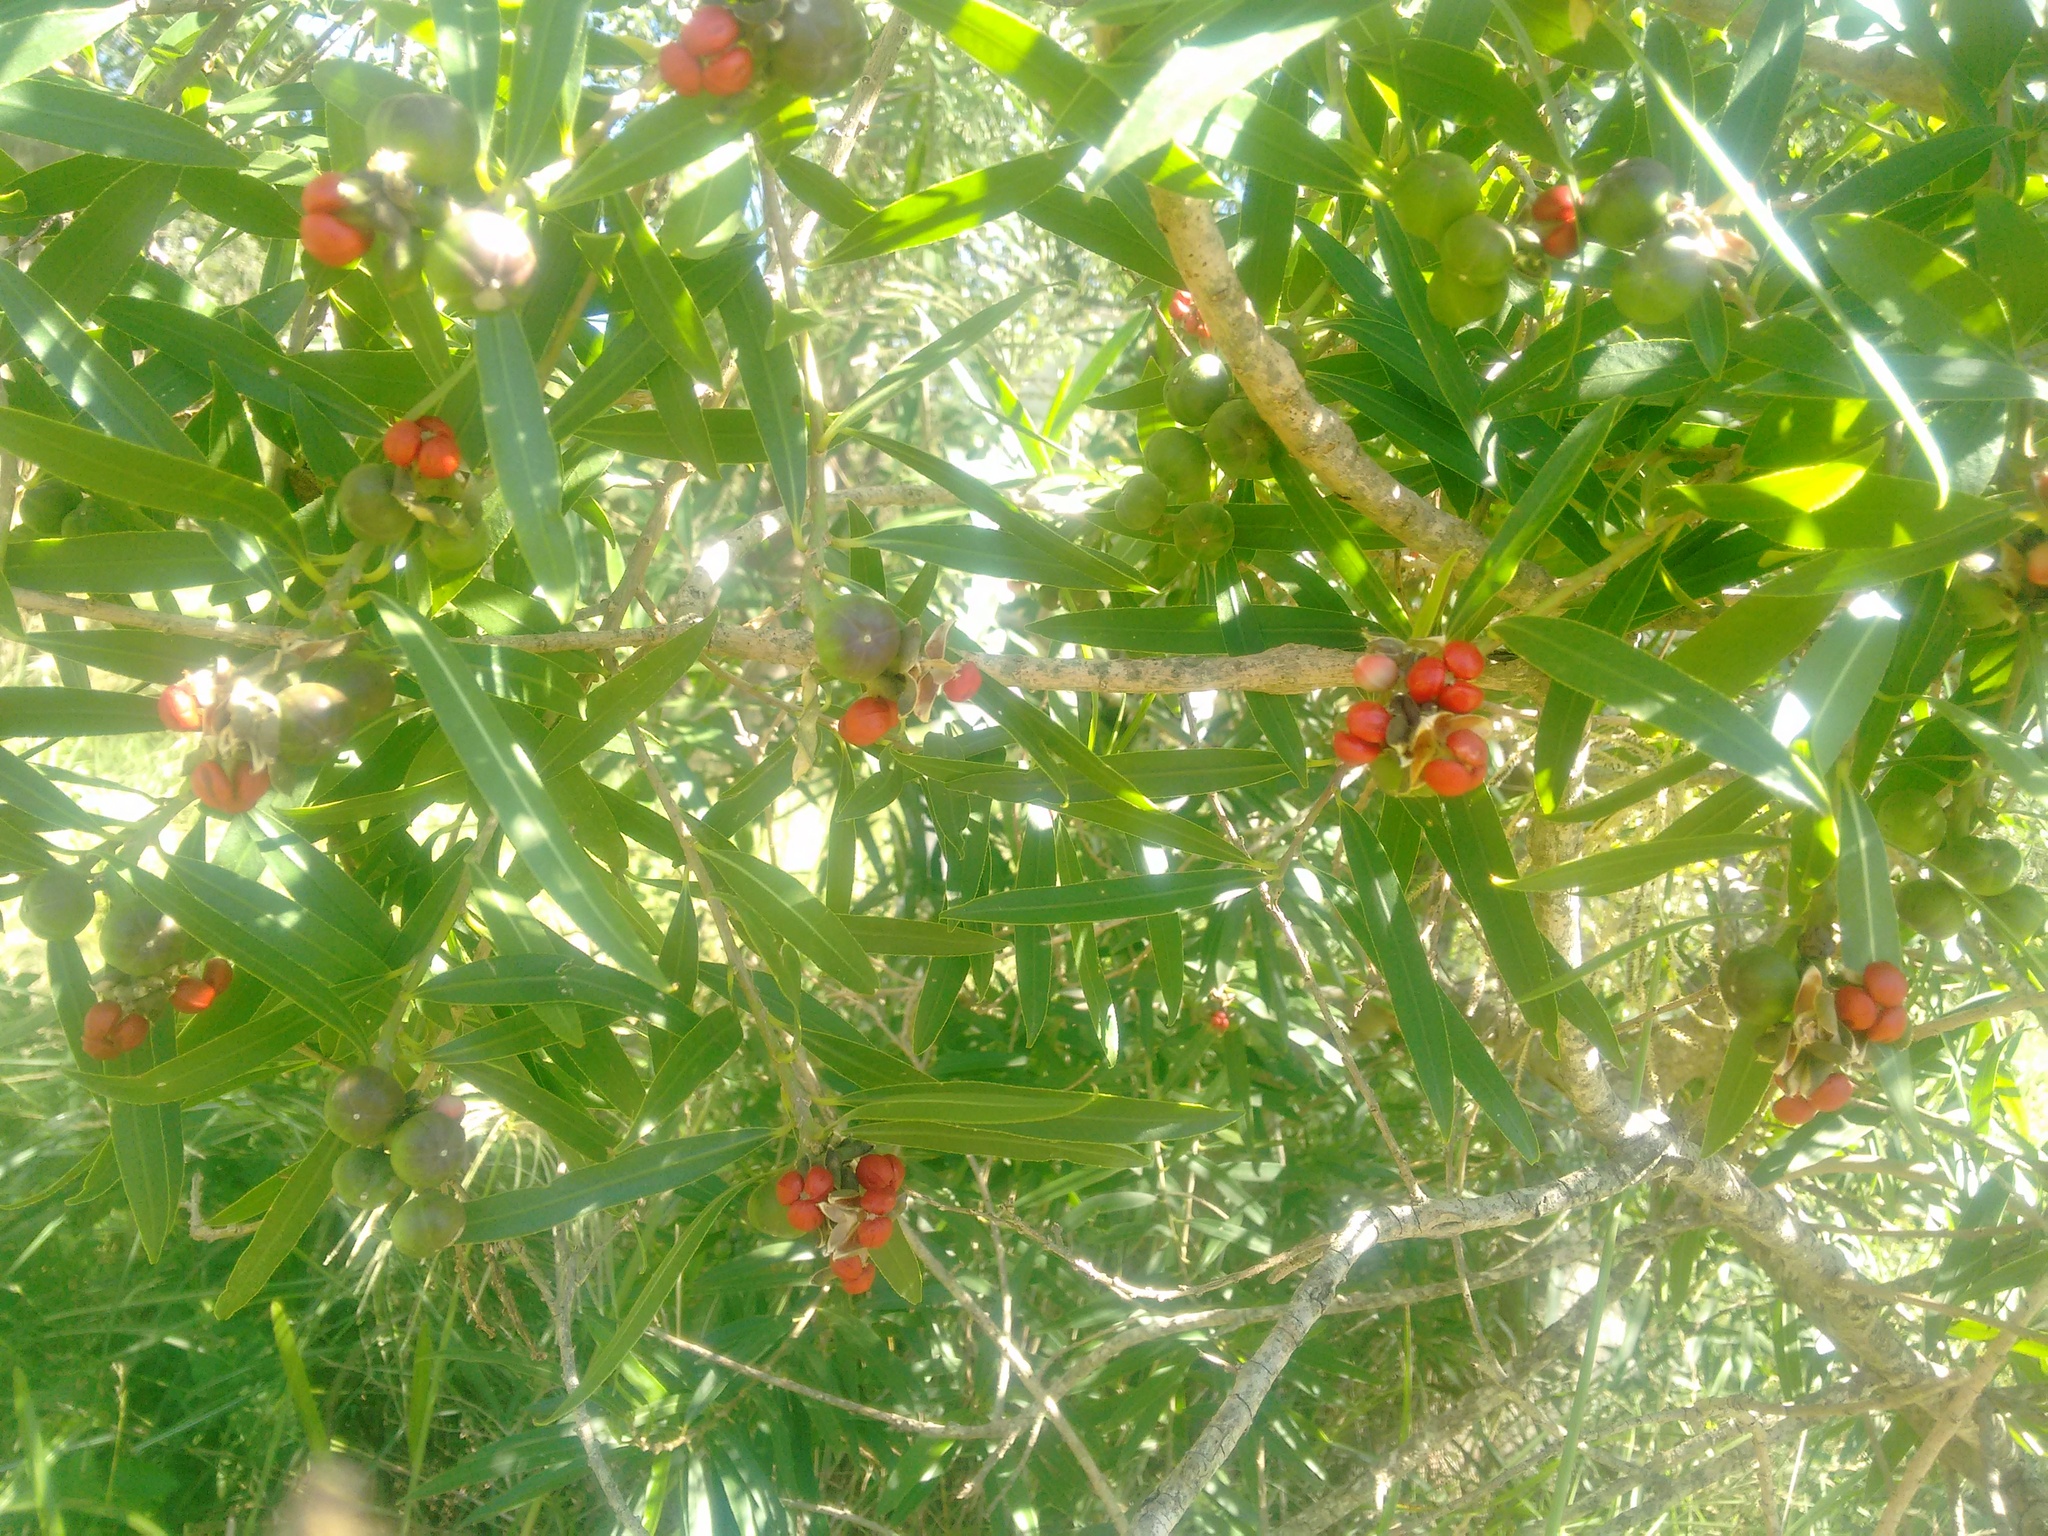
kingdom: Plantae
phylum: Tracheophyta
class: Magnoliopsida
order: Malpighiales
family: Euphorbiaceae
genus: Sapium
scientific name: Sapium haematospermum
